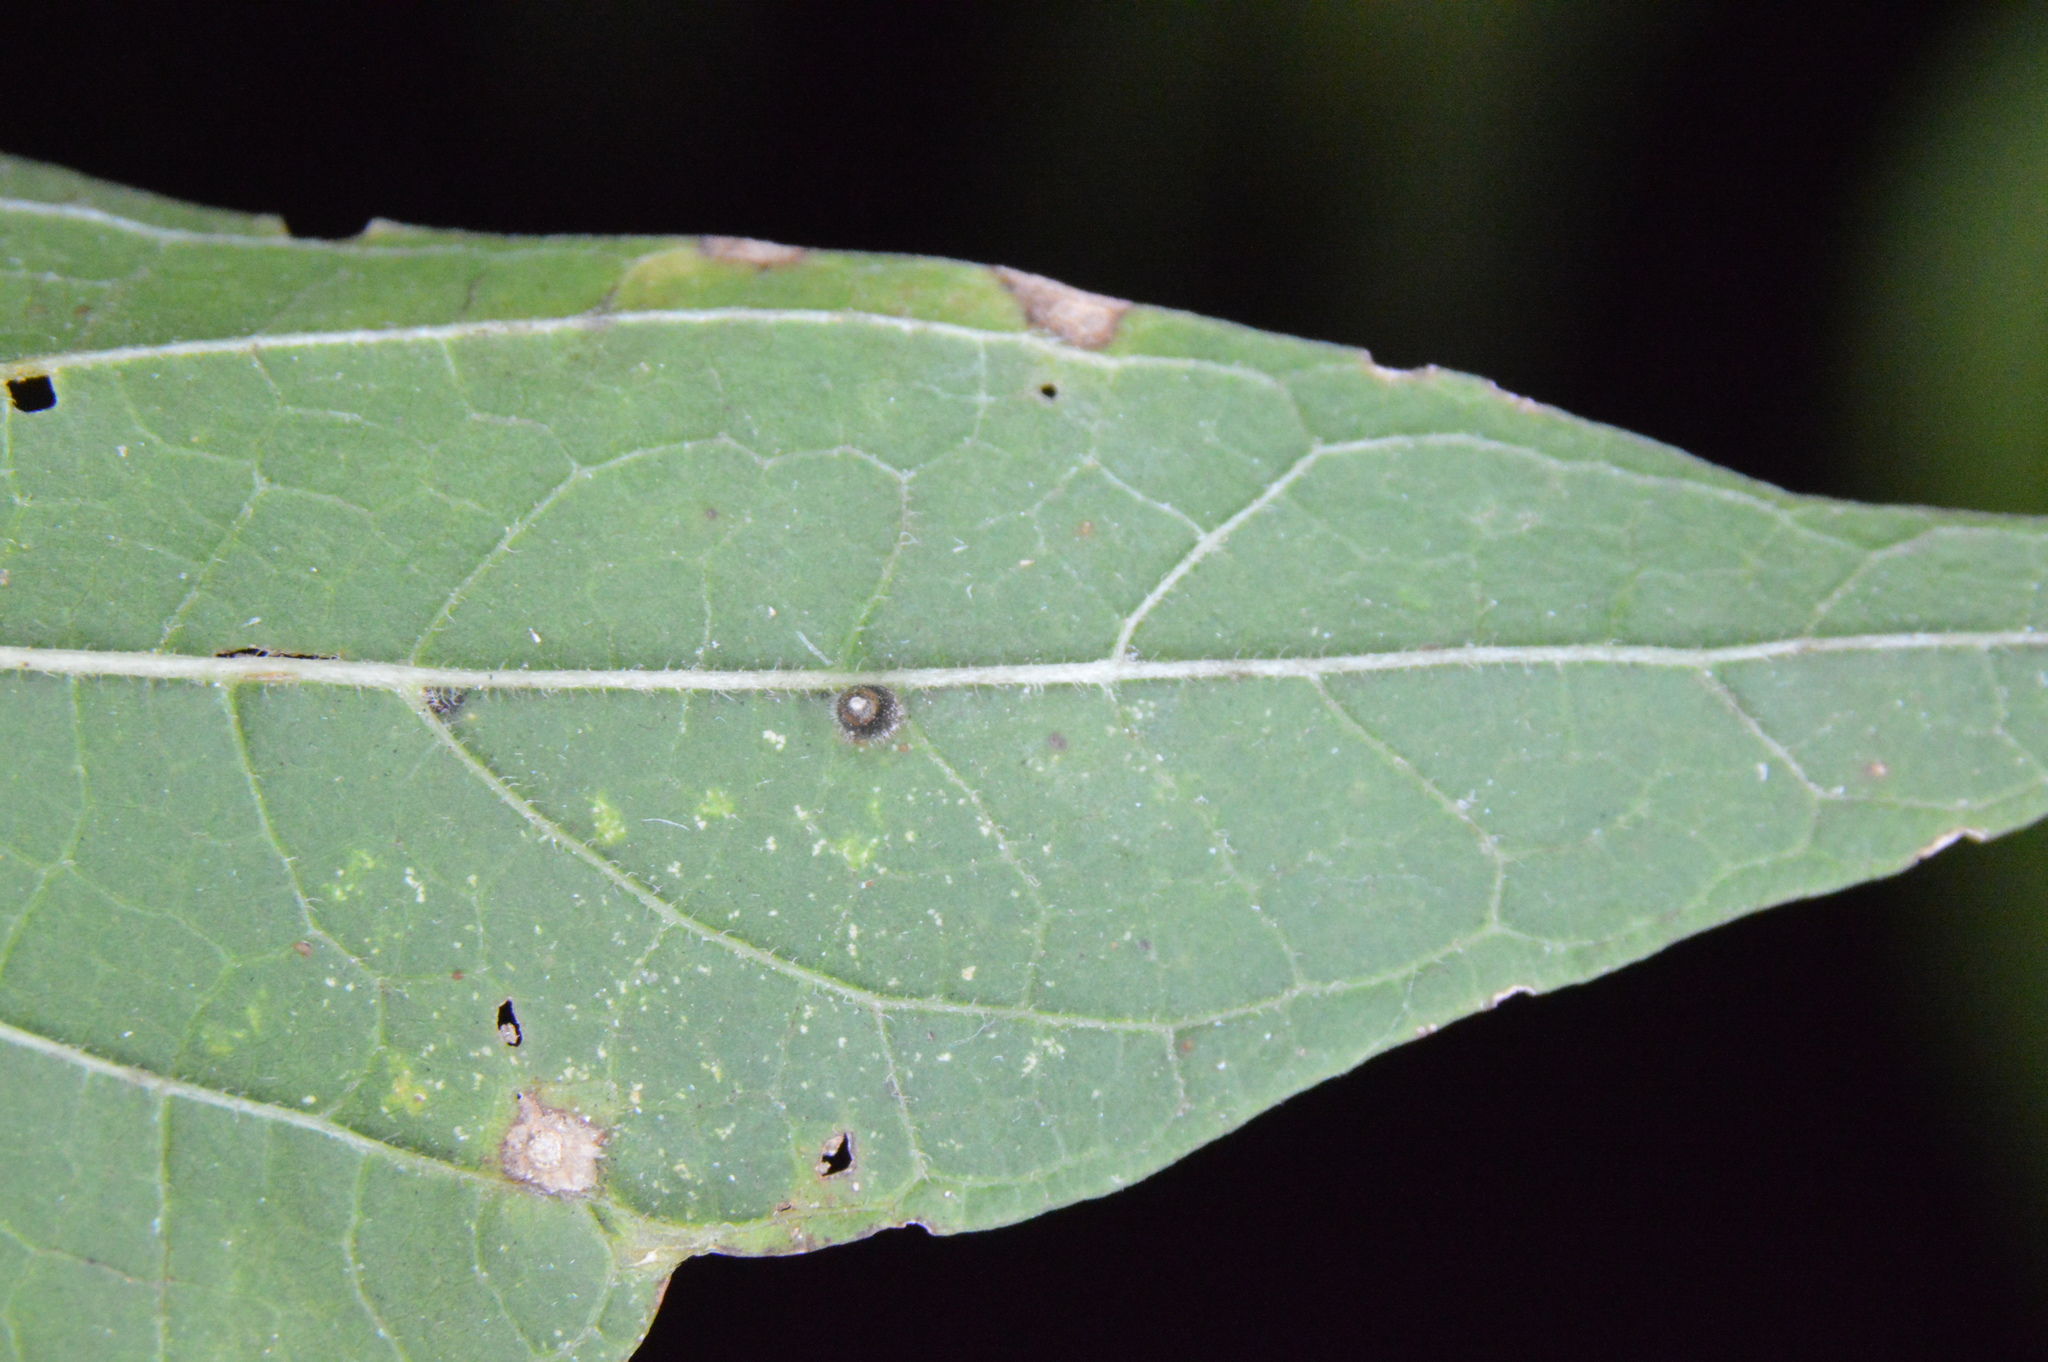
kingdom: Animalia
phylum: Arthropoda
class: Insecta
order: Diptera
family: Cecidomyiidae
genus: Celticecis
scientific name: Celticecis cupiformis
